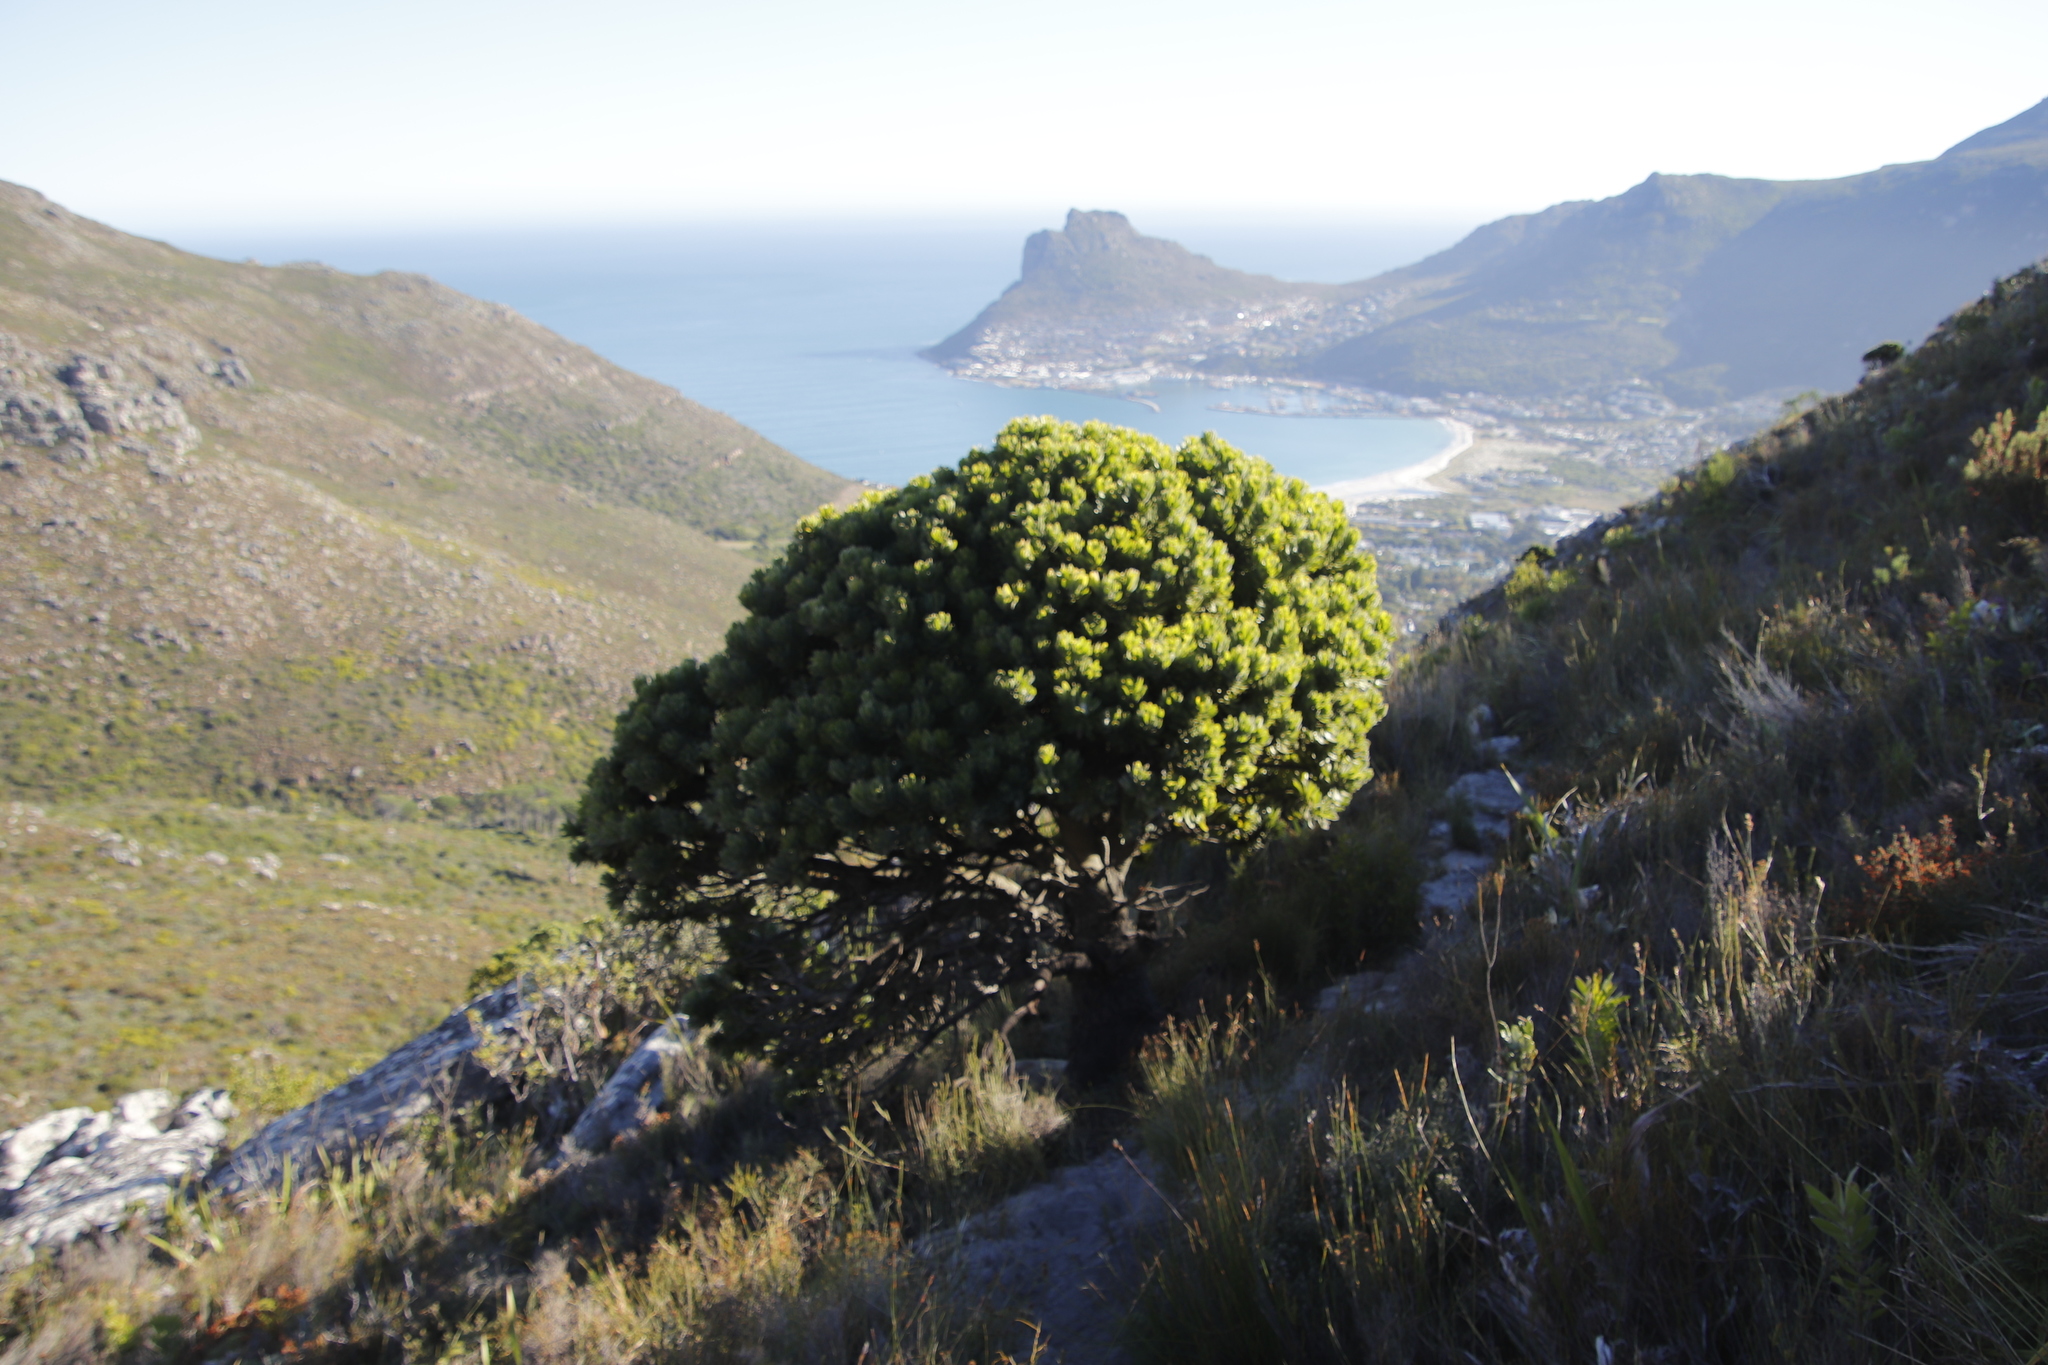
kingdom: Plantae
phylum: Tracheophyta
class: Magnoliopsida
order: Proteales
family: Proteaceae
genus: Mimetes
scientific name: Mimetes fimbriifolius
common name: Fringed bottlebrush
